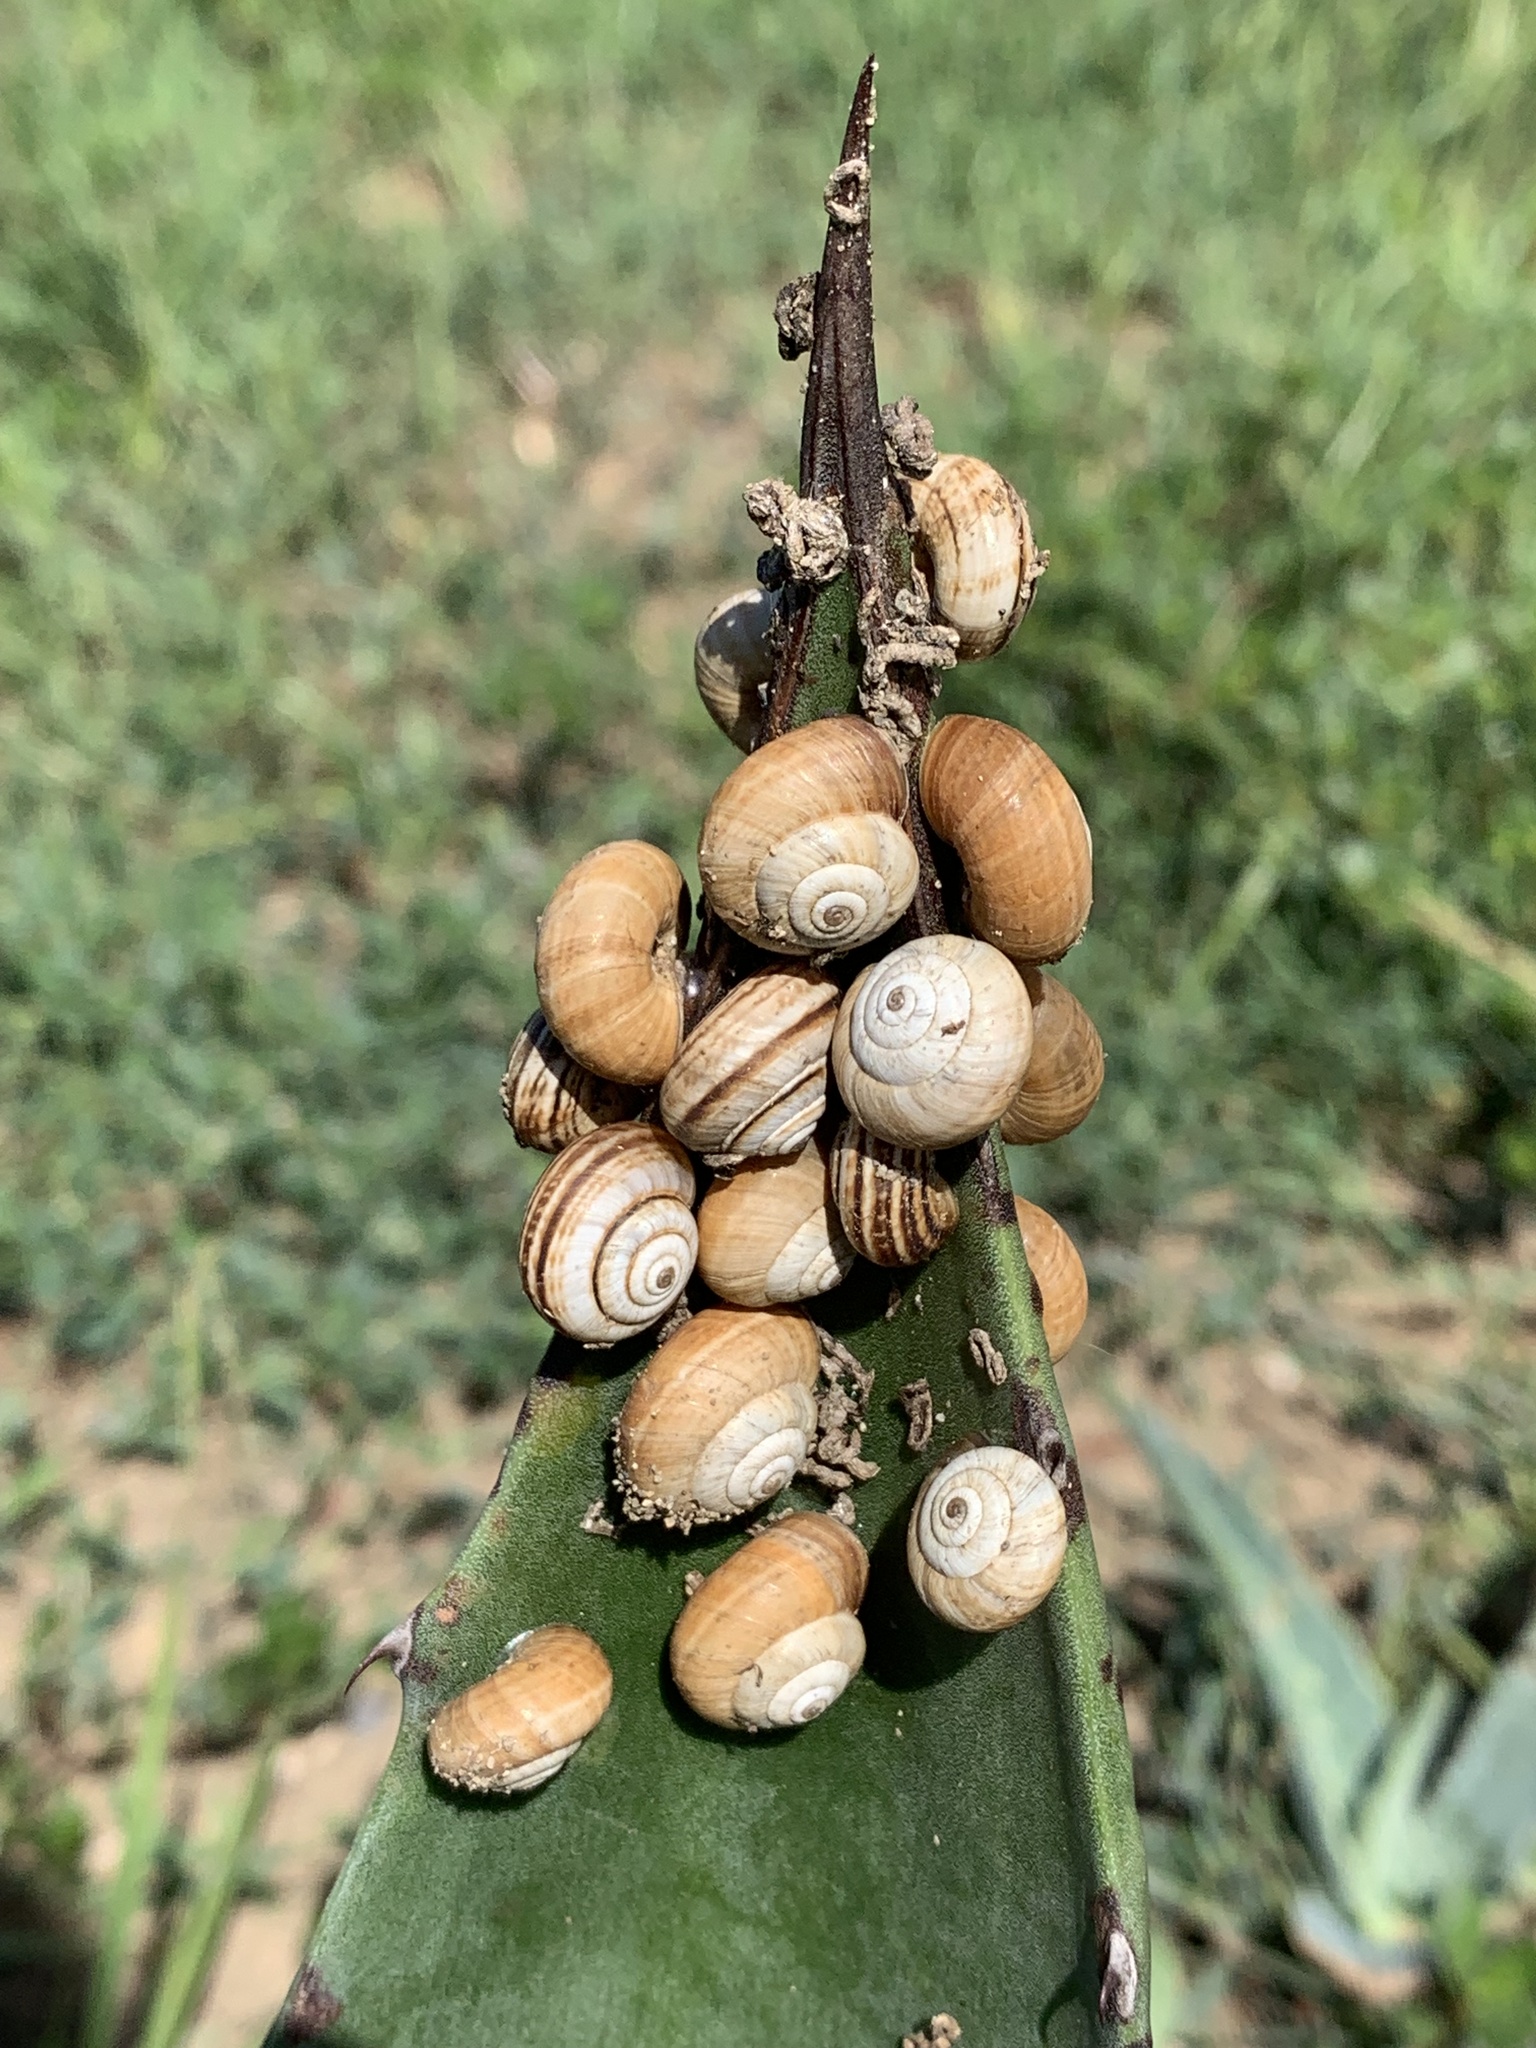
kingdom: Animalia
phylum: Mollusca
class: Gastropoda
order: Stylommatophora
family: Geomitridae
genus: Cernuella
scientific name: Cernuella virgata
